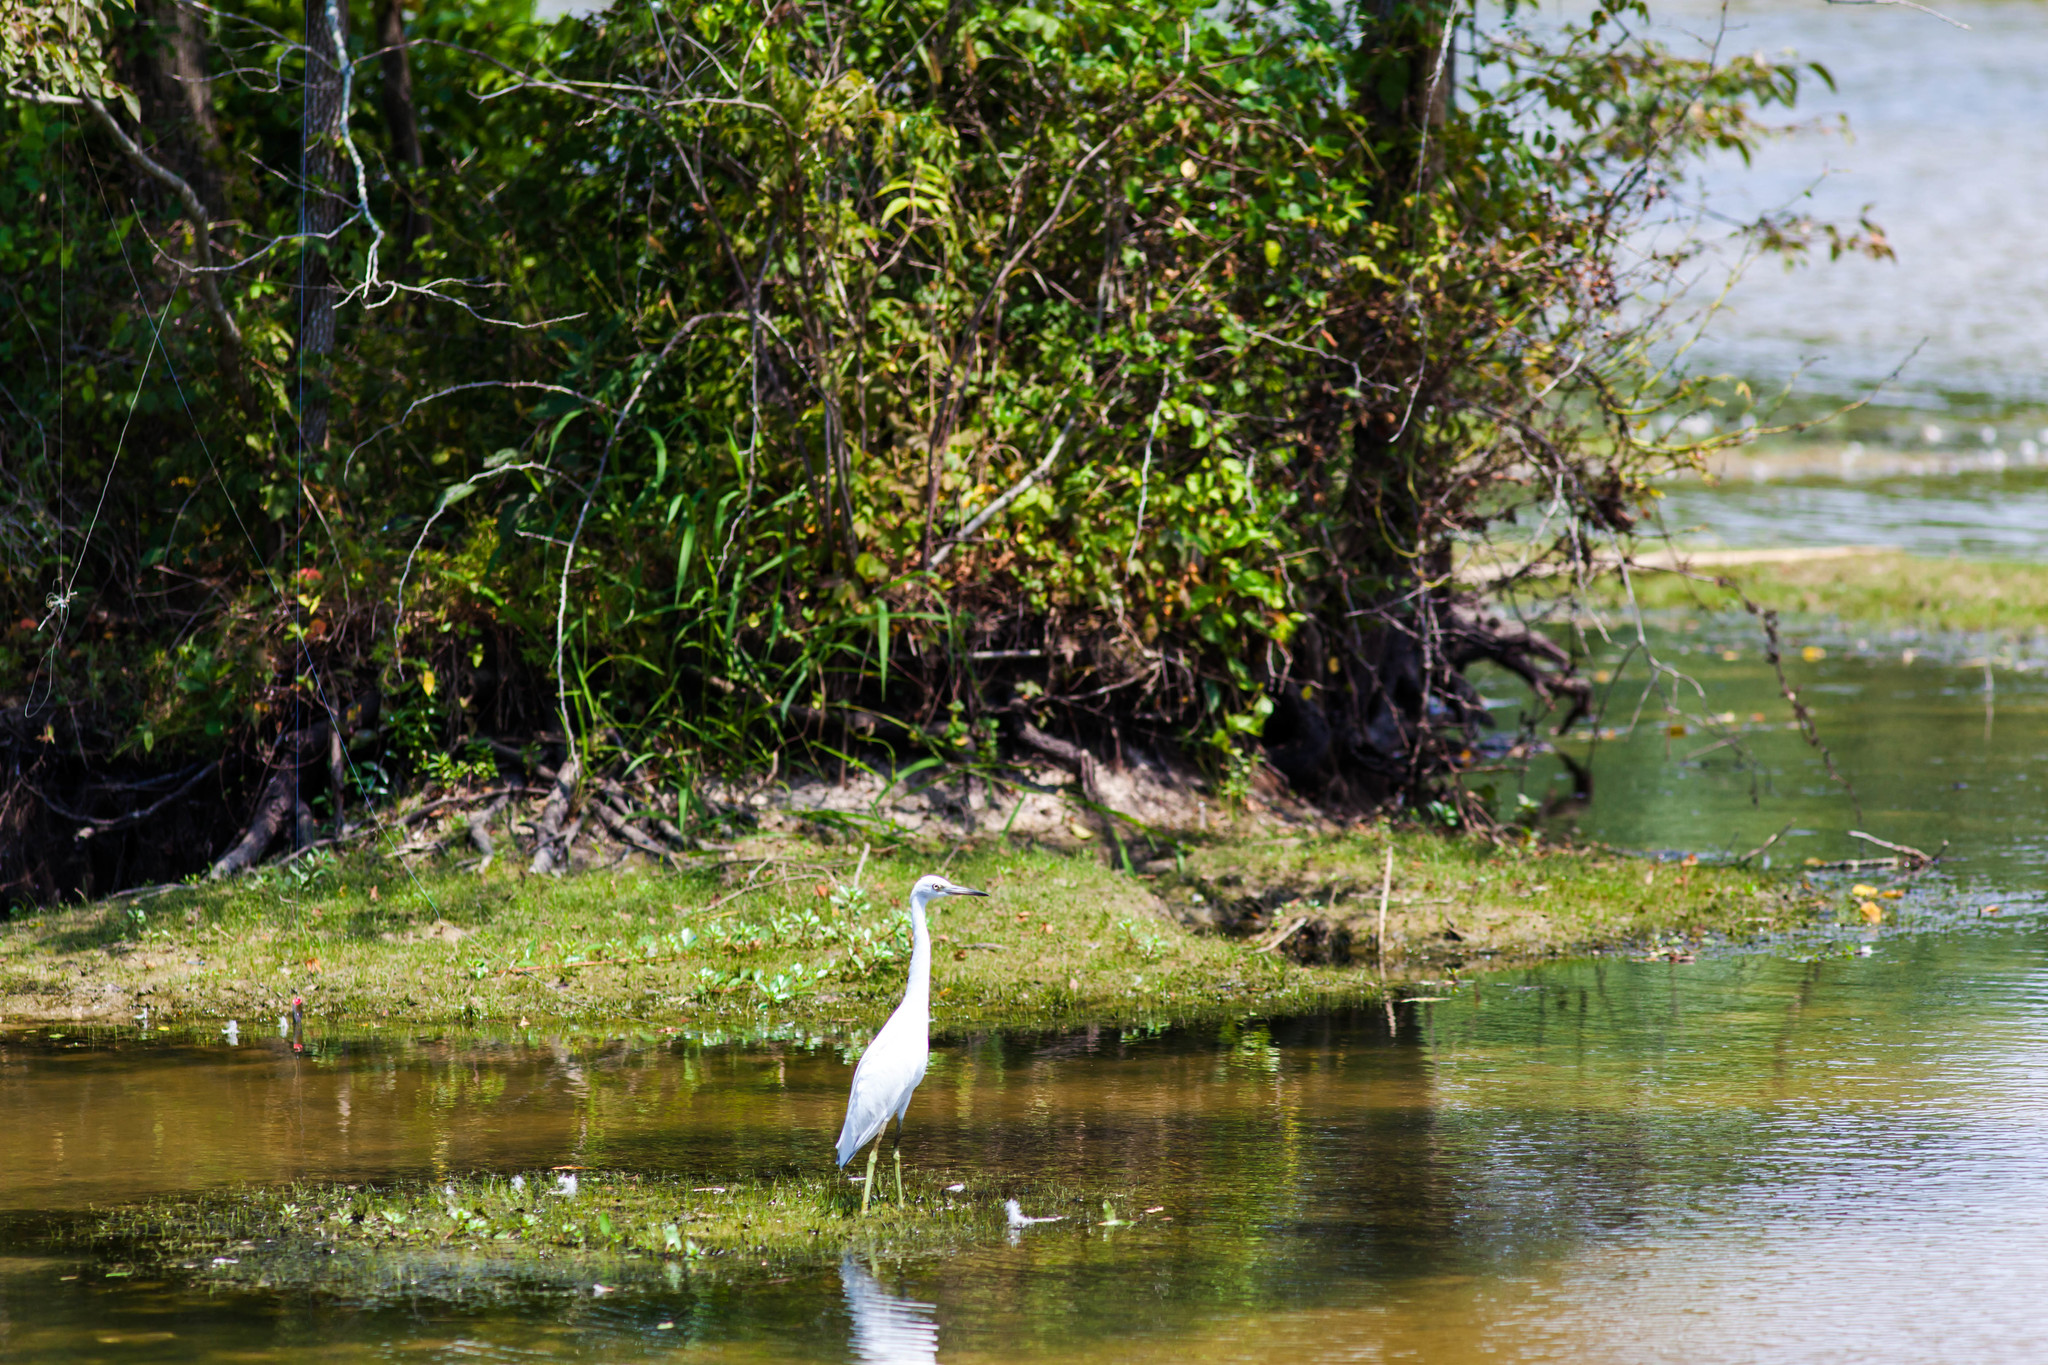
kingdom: Animalia
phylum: Chordata
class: Aves
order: Pelecaniformes
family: Ardeidae
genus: Egretta
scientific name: Egretta caerulea
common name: Little blue heron
